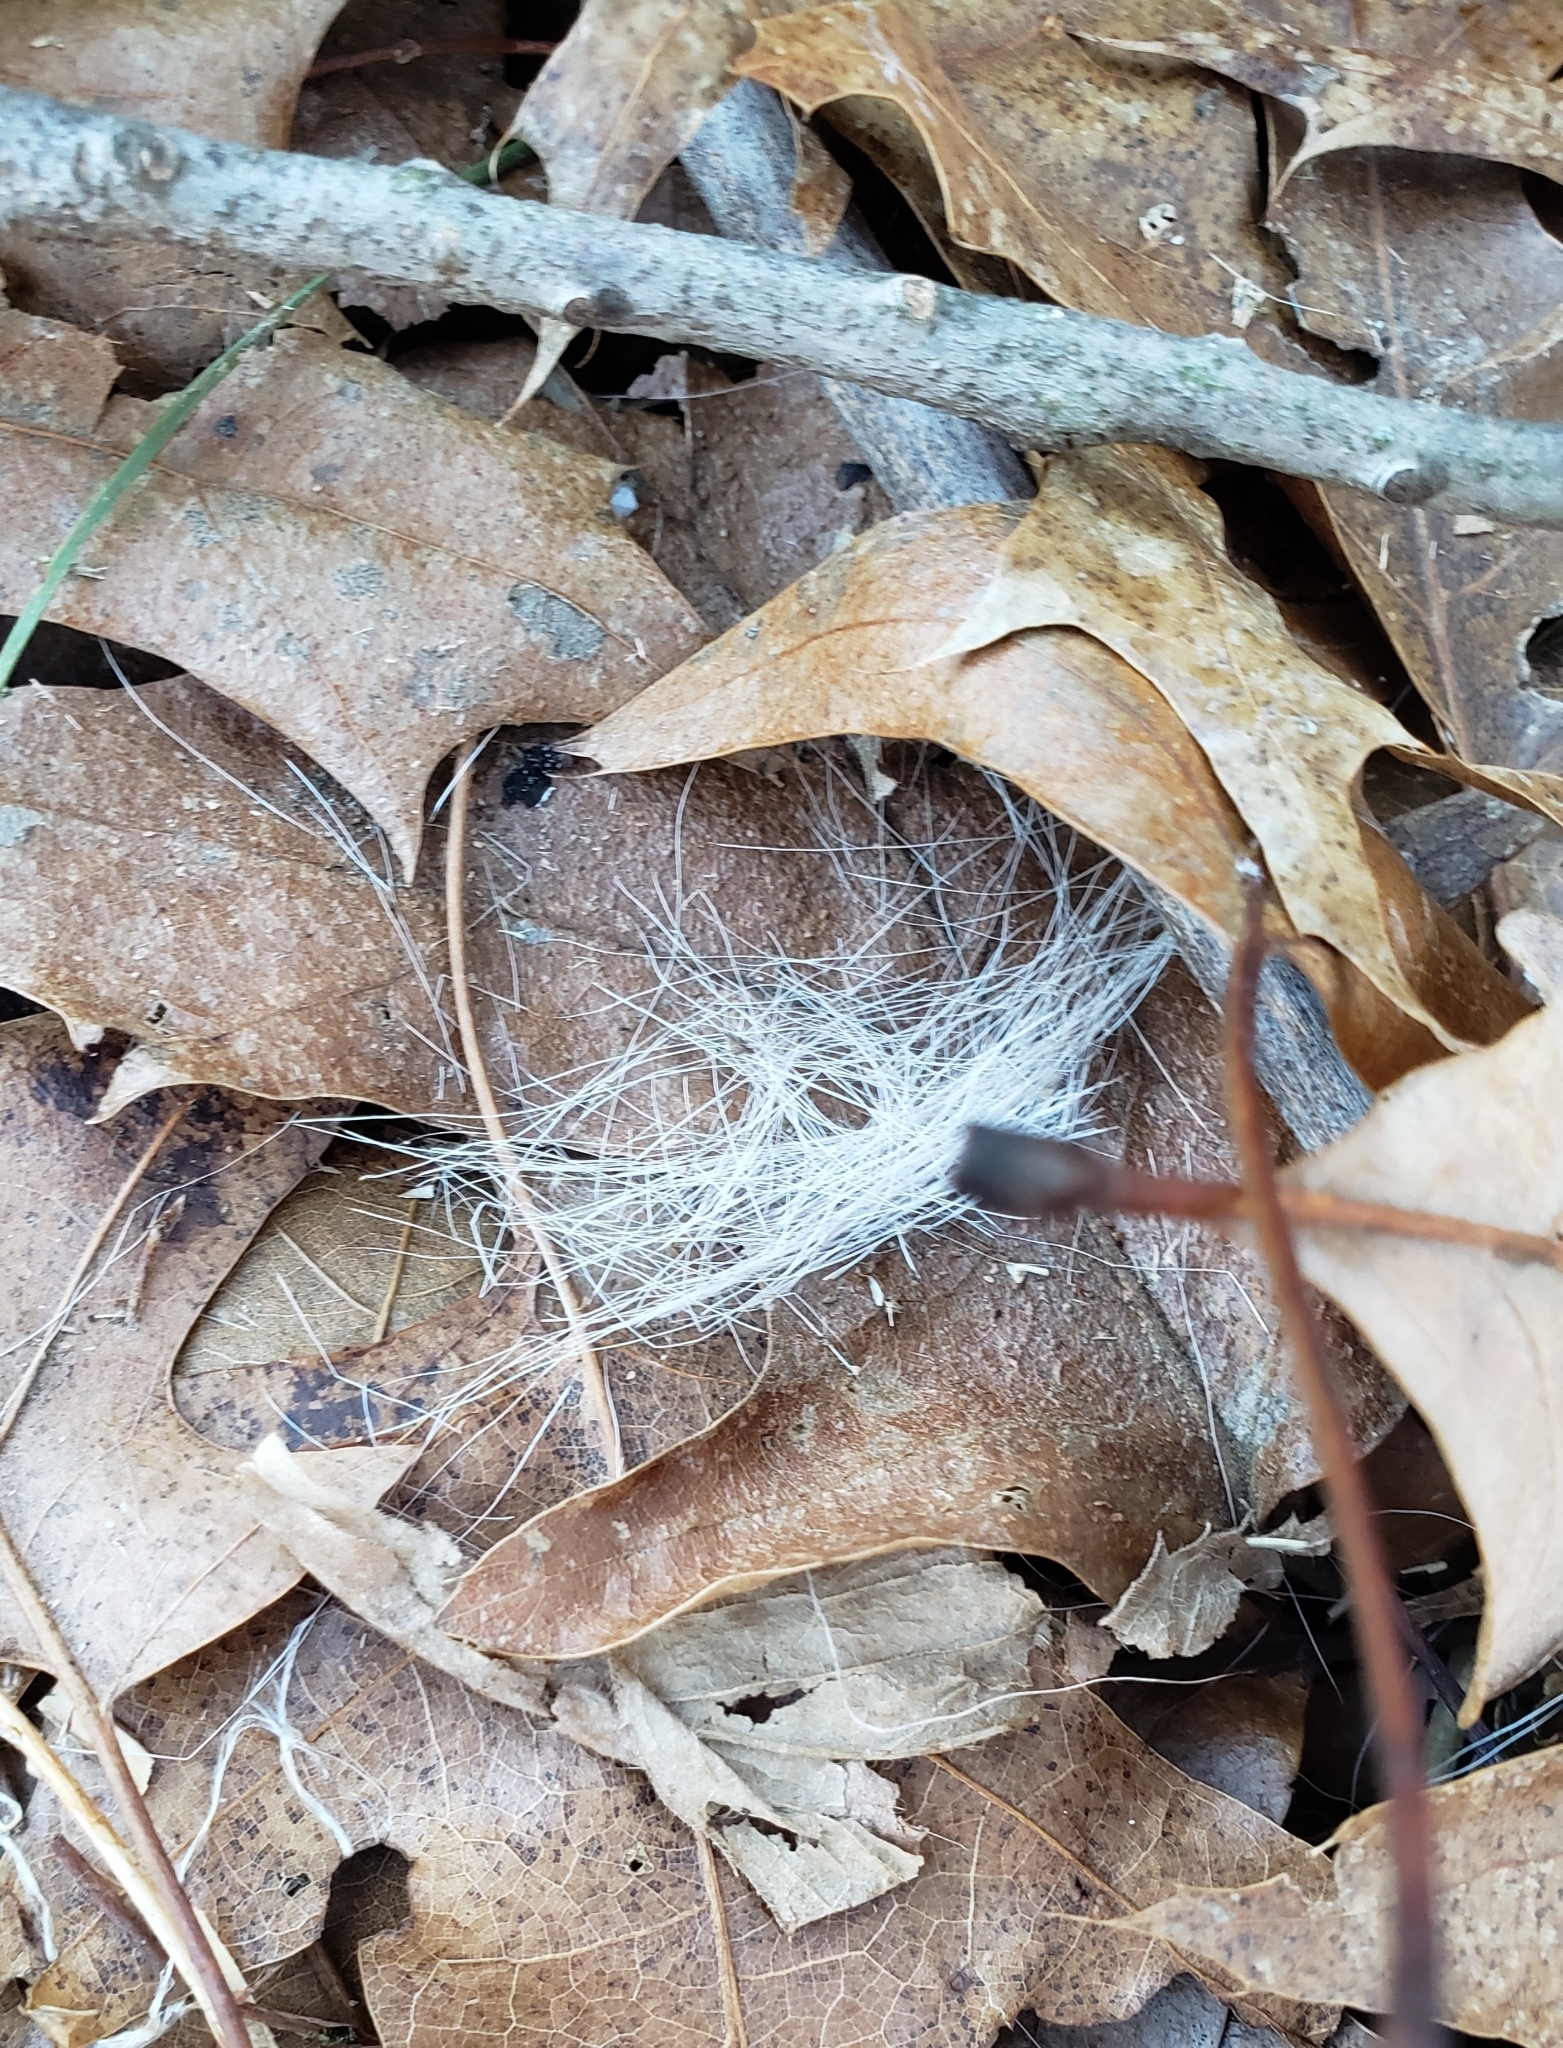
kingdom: Animalia
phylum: Chordata
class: Mammalia
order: Artiodactyla
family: Cervidae
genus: Odocoileus
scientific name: Odocoileus virginianus
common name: White-tailed deer
